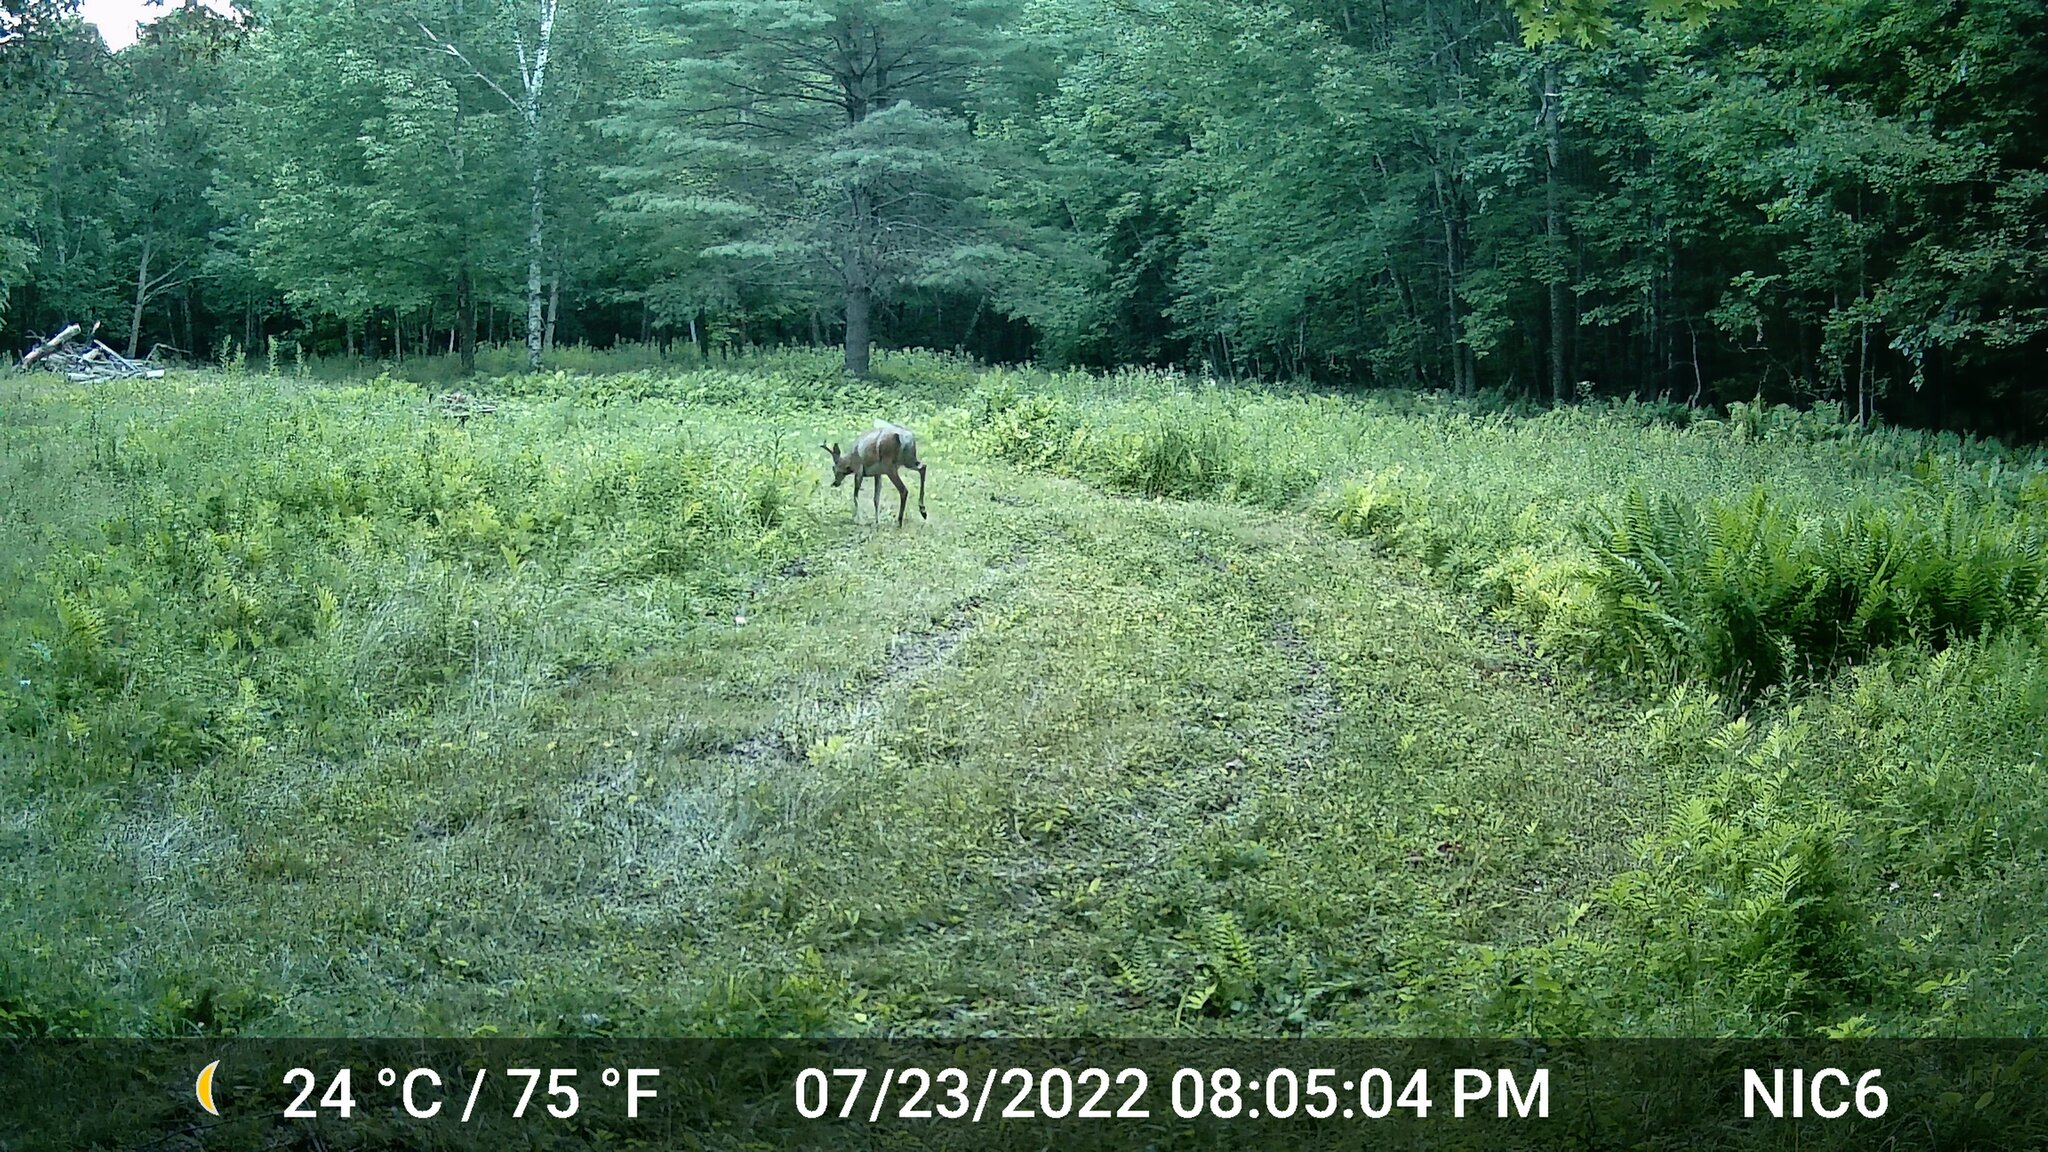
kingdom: Animalia
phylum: Chordata
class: Mammalia
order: Artiodactyla
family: Cervidae
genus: Odocoileus
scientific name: Odocoileus virginianus
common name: White-tailed deer
